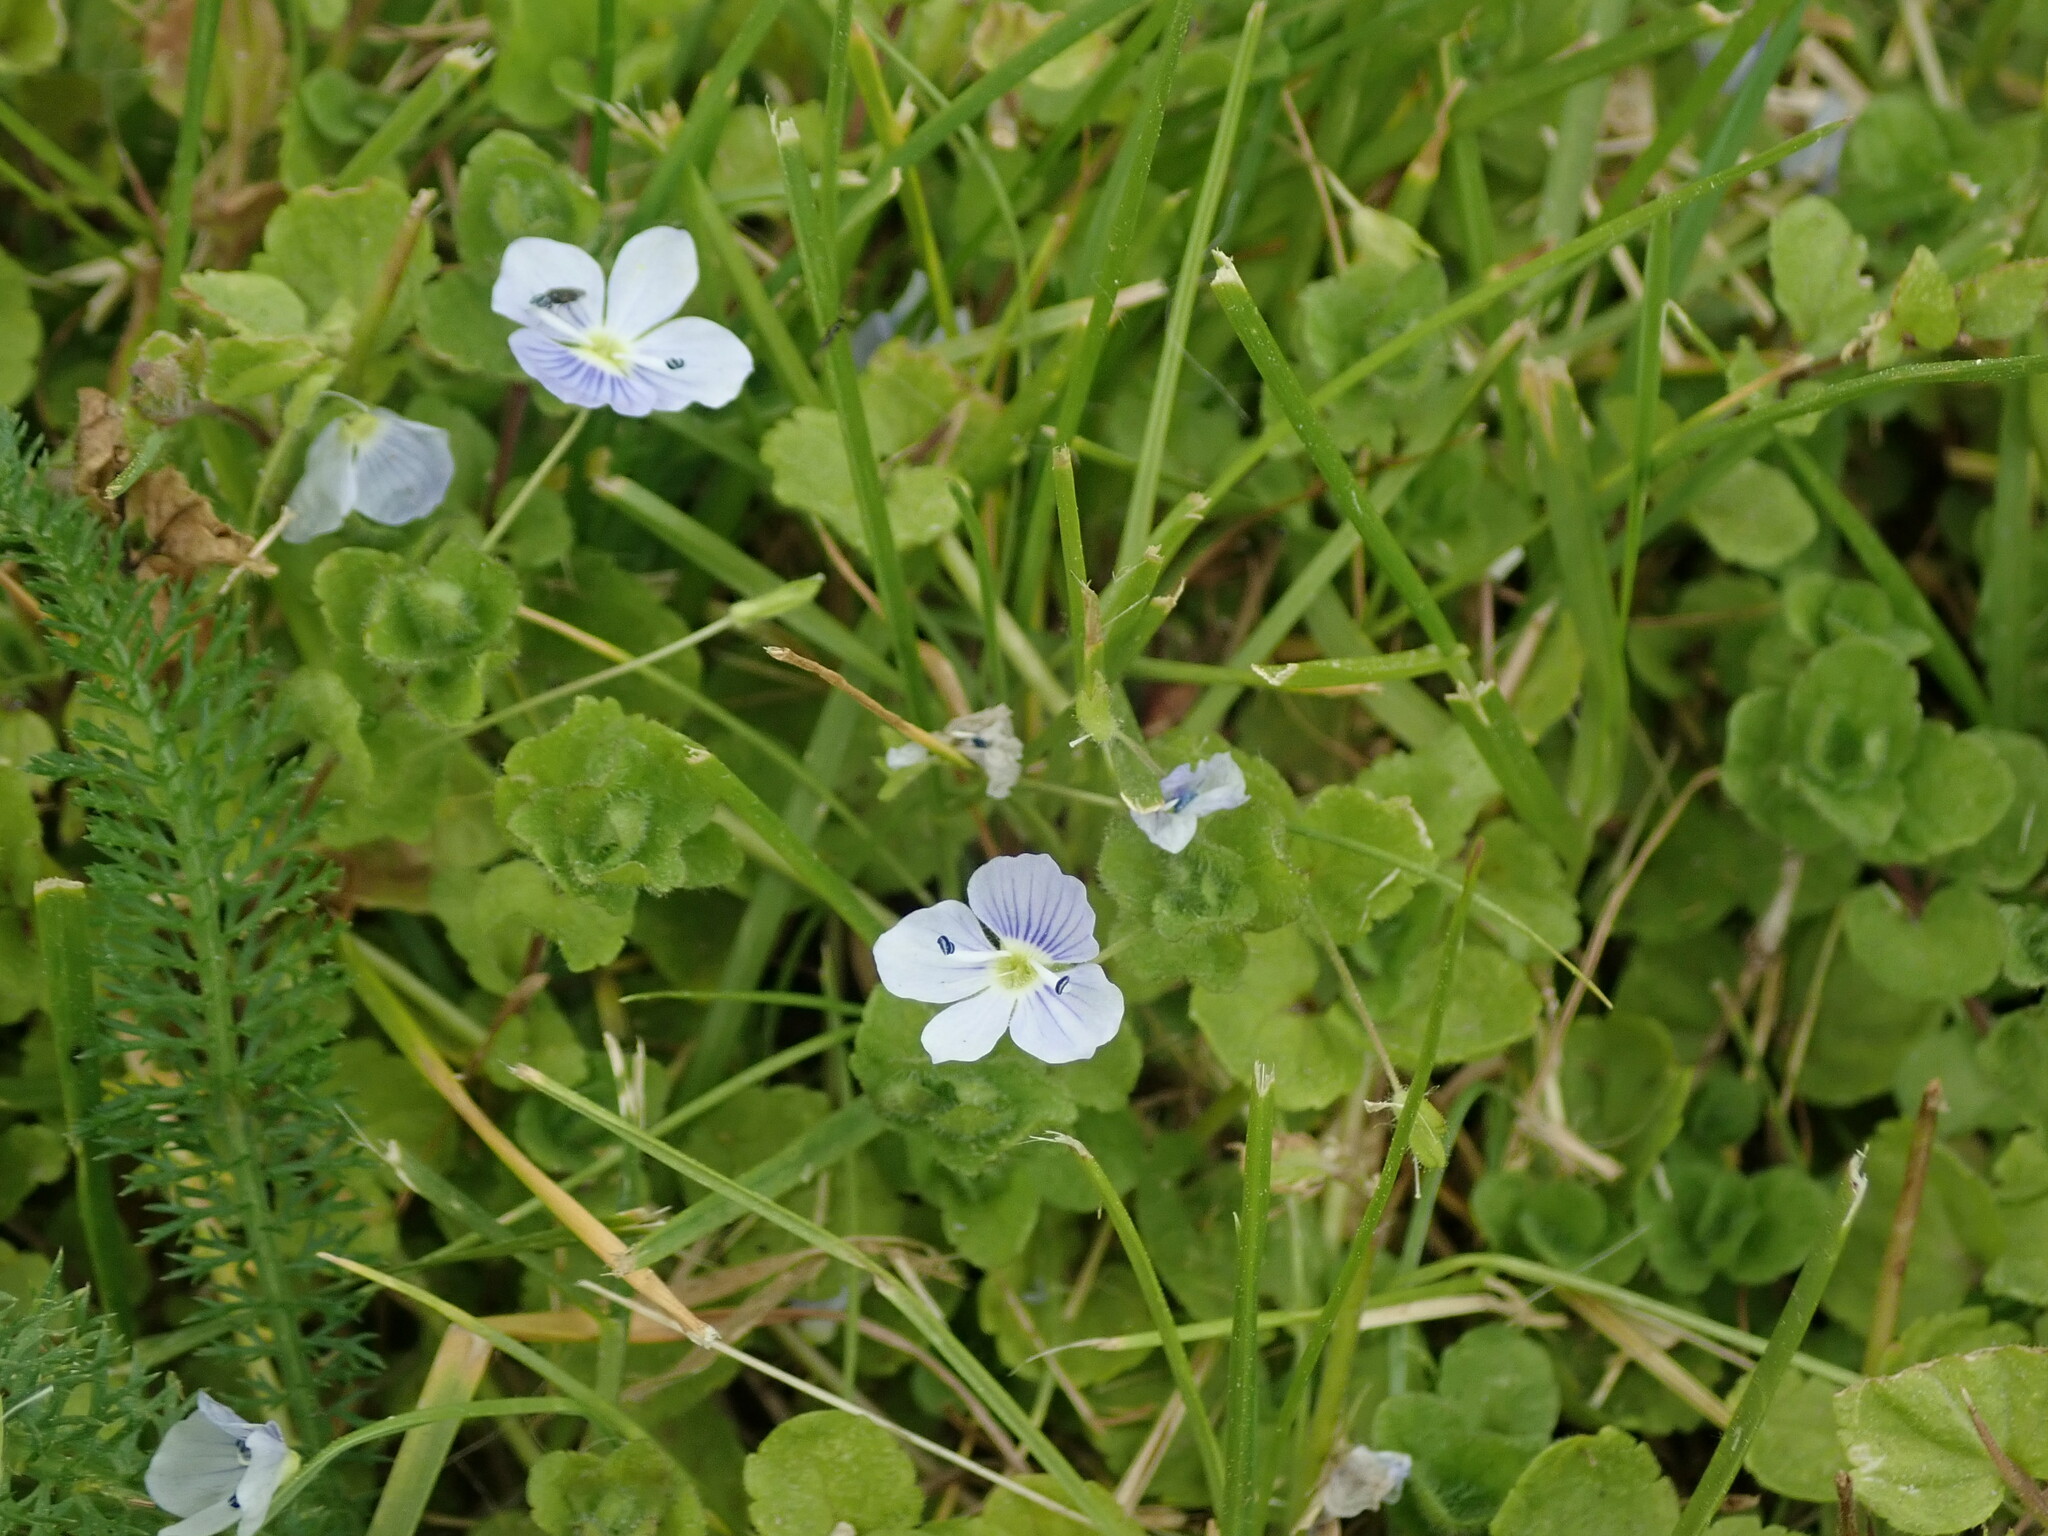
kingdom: Plantae
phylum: Tracheophyta
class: Magnoliopsida
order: Lamiales
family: Plantaginaceae
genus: Veronica
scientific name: Veronica filiformis
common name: Slender speedwell
